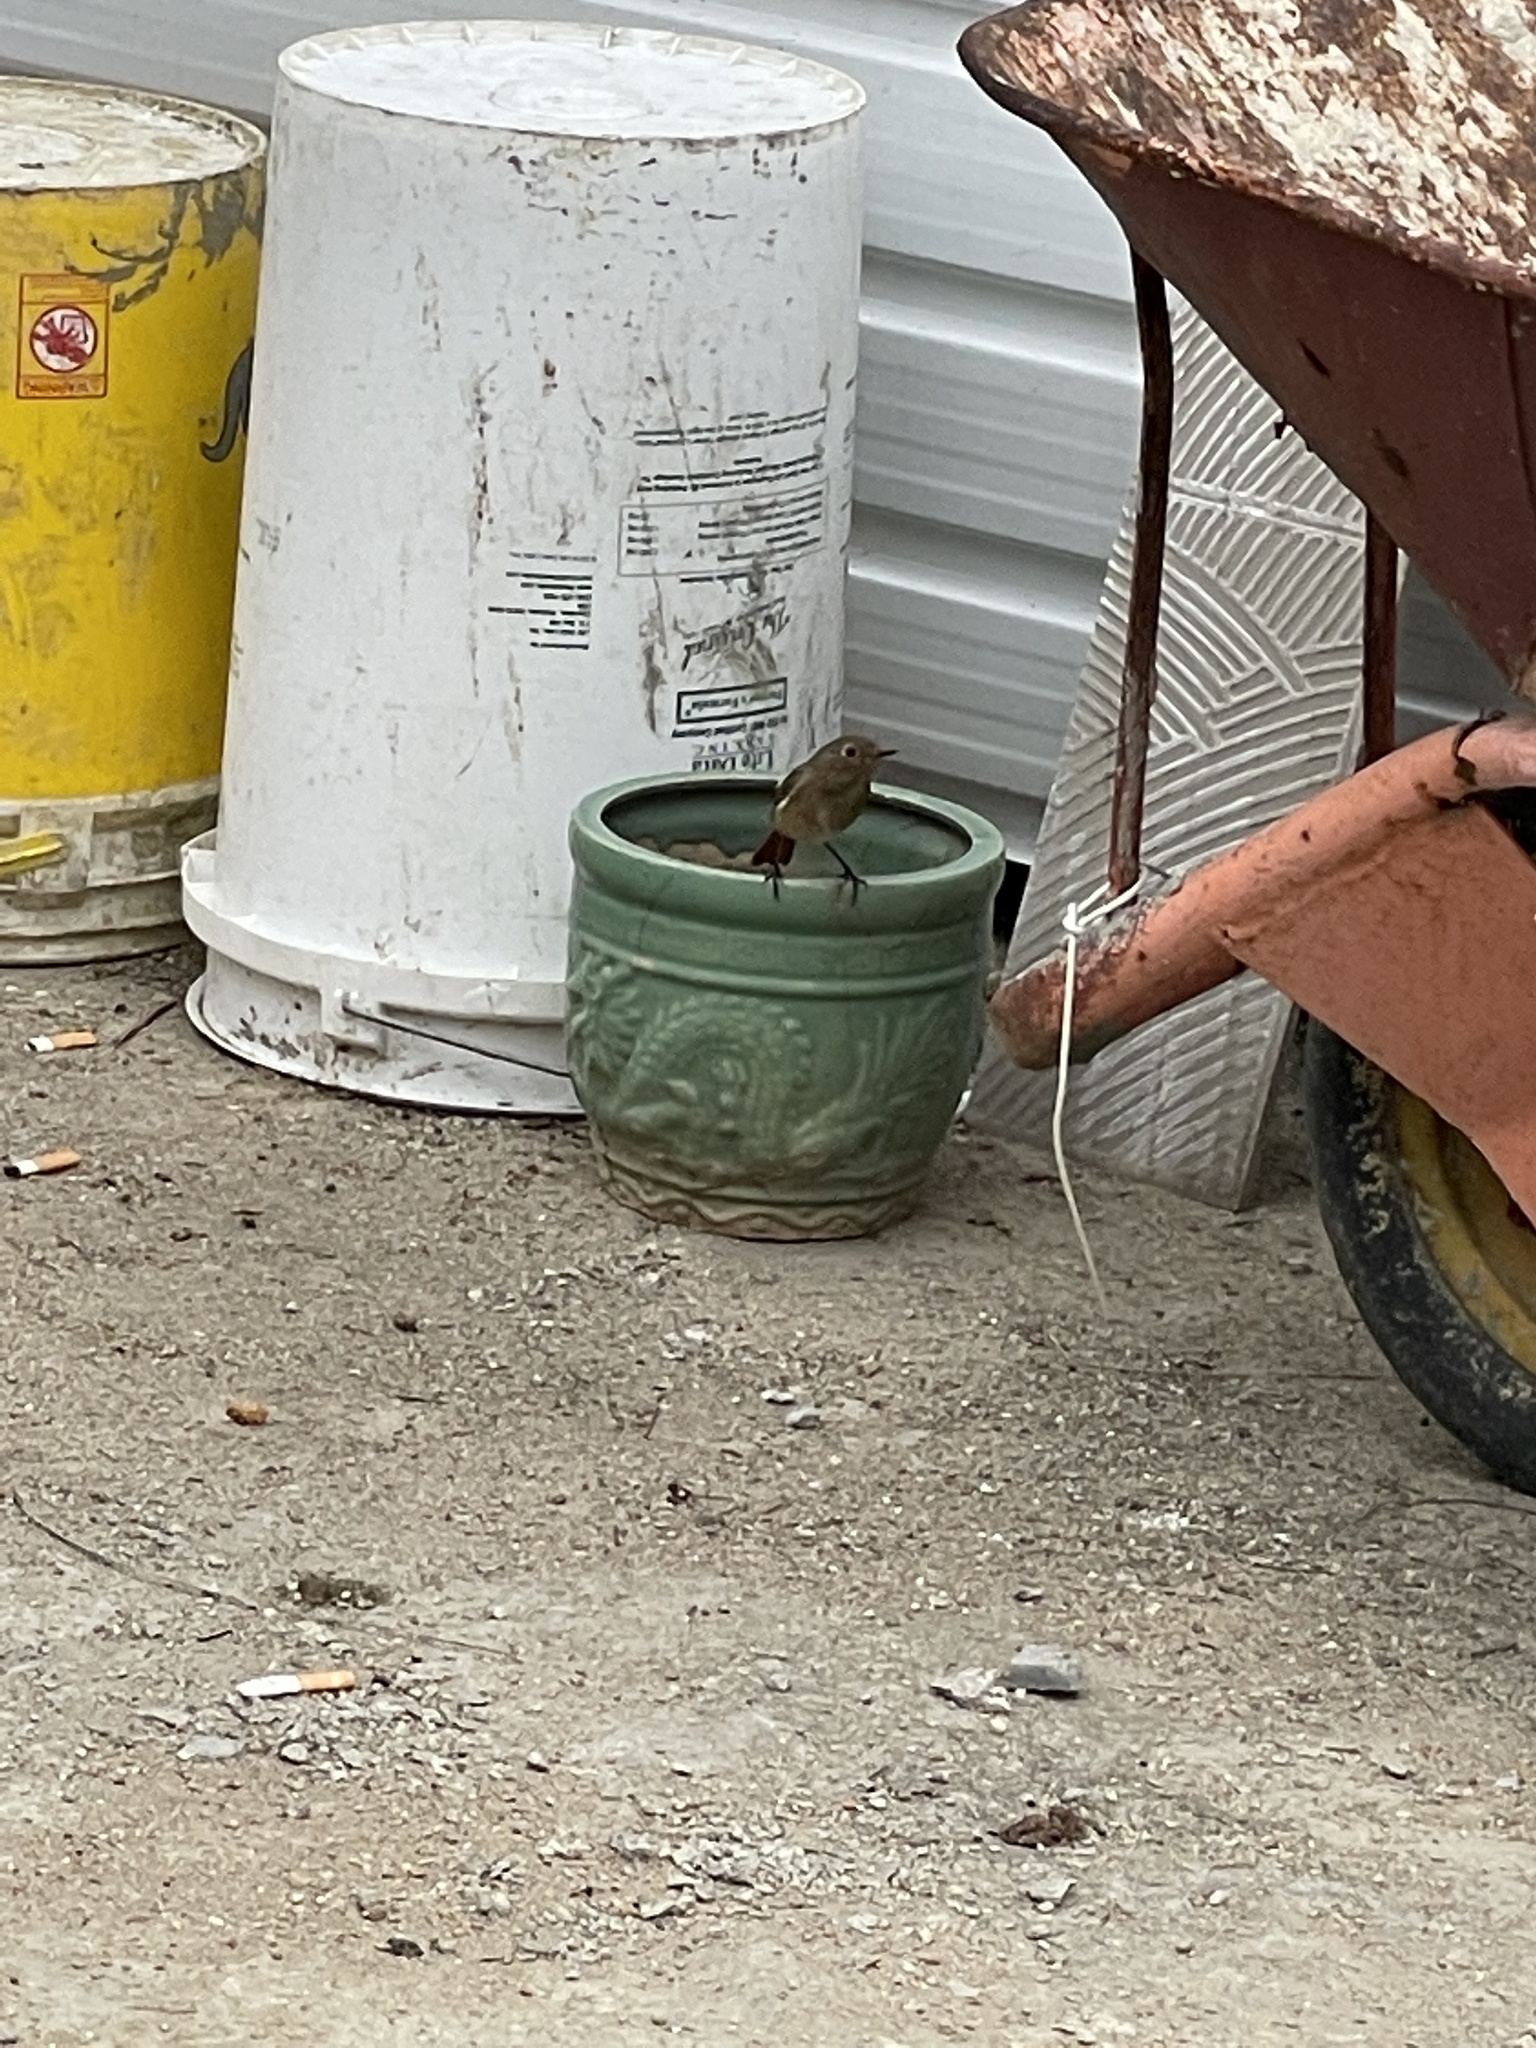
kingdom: Animalia
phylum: Chordata
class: Aves
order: Passeriformes
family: Muscicapidae
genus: Phoenicurus
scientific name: Phoenicurus auroreus
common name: Daurian redstart
